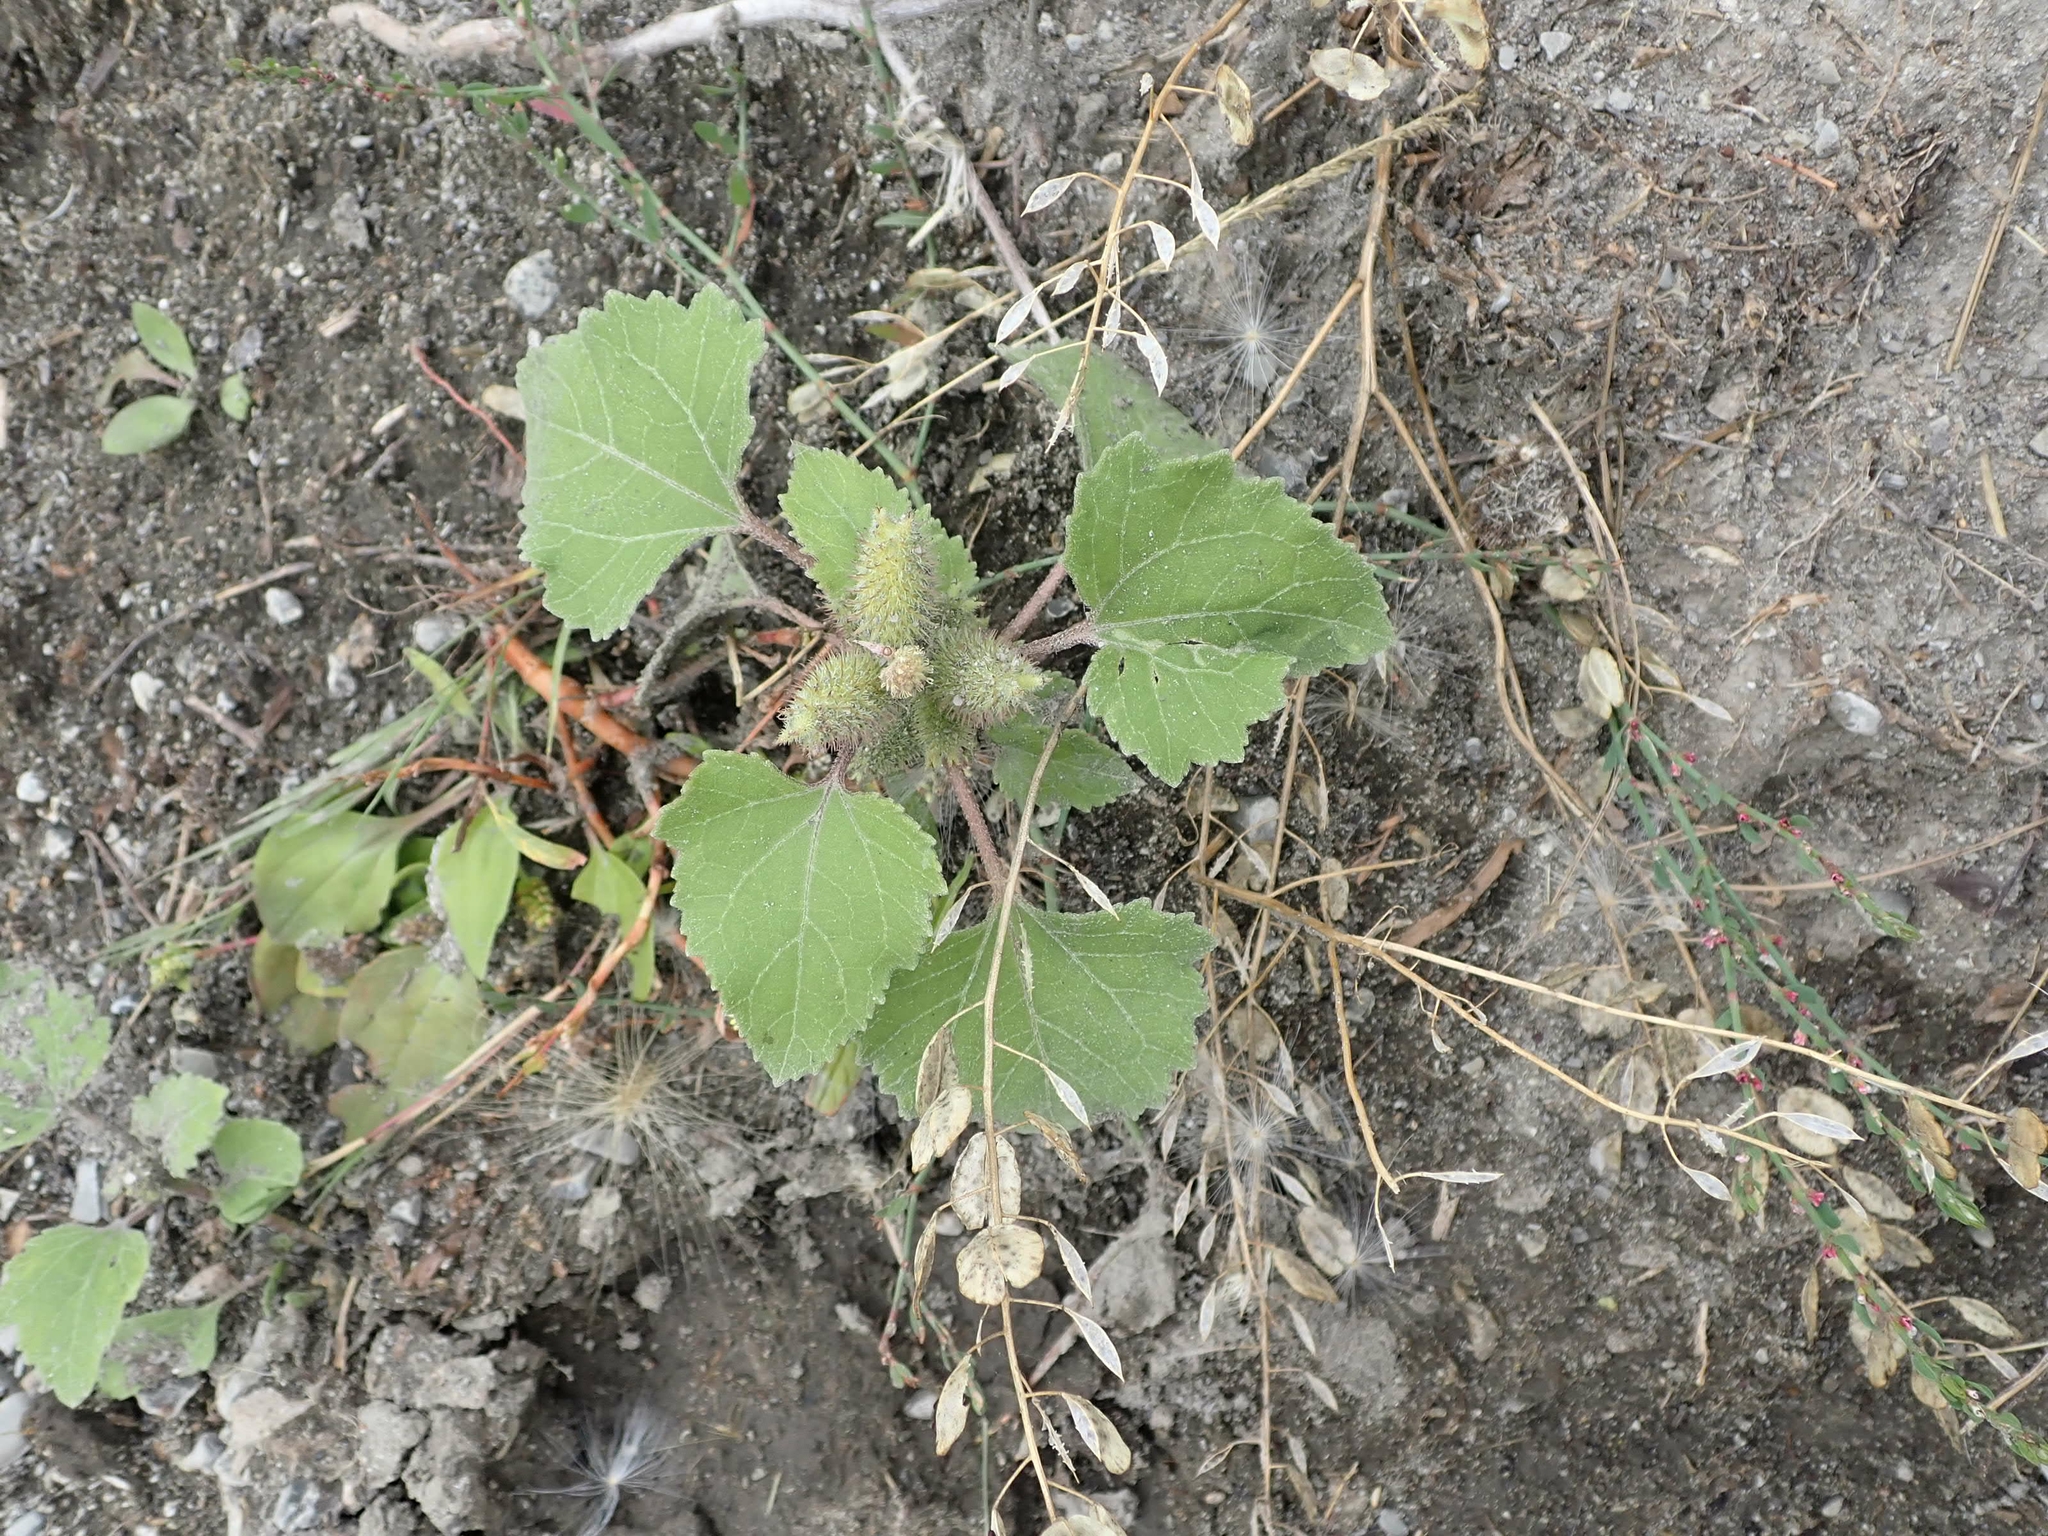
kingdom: Plantae
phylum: Tracheophyta
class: Magnoliopsida
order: Asterales
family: Asteraceae
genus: Xanthium
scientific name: Xanthium strumarium
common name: Rough cocklebur
